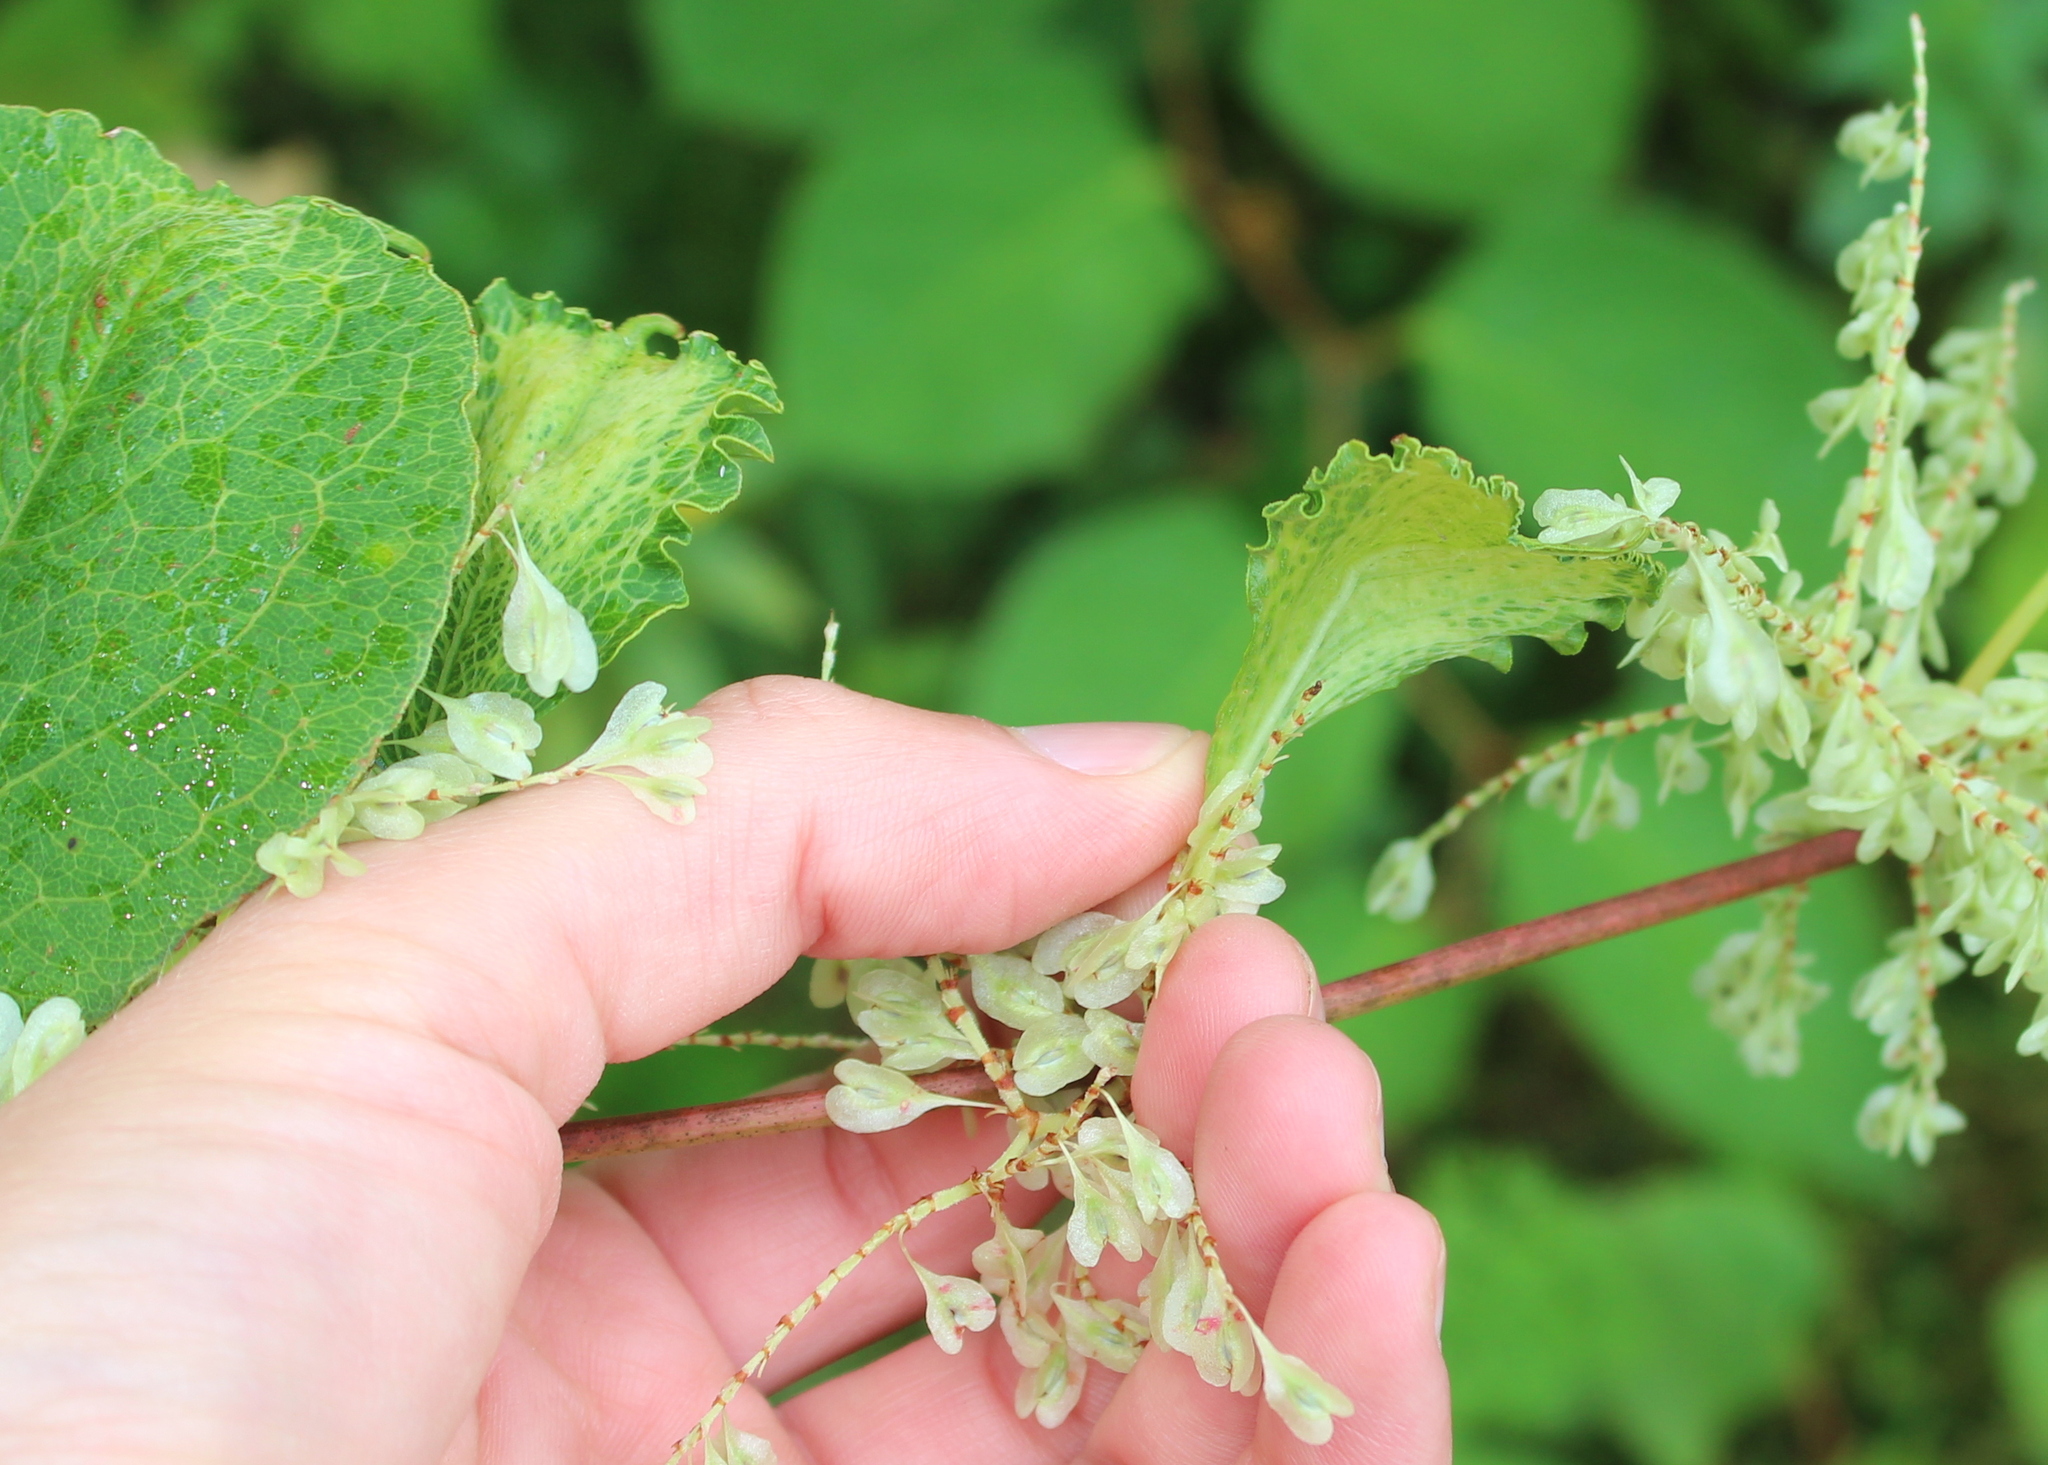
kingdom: Plantae
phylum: Tracheophyta
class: Magnoliopsida
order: Caryophyllales
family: Polygonaceae
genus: Reynoutria
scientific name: Reynoutria japonica
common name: Japanese knotweed
